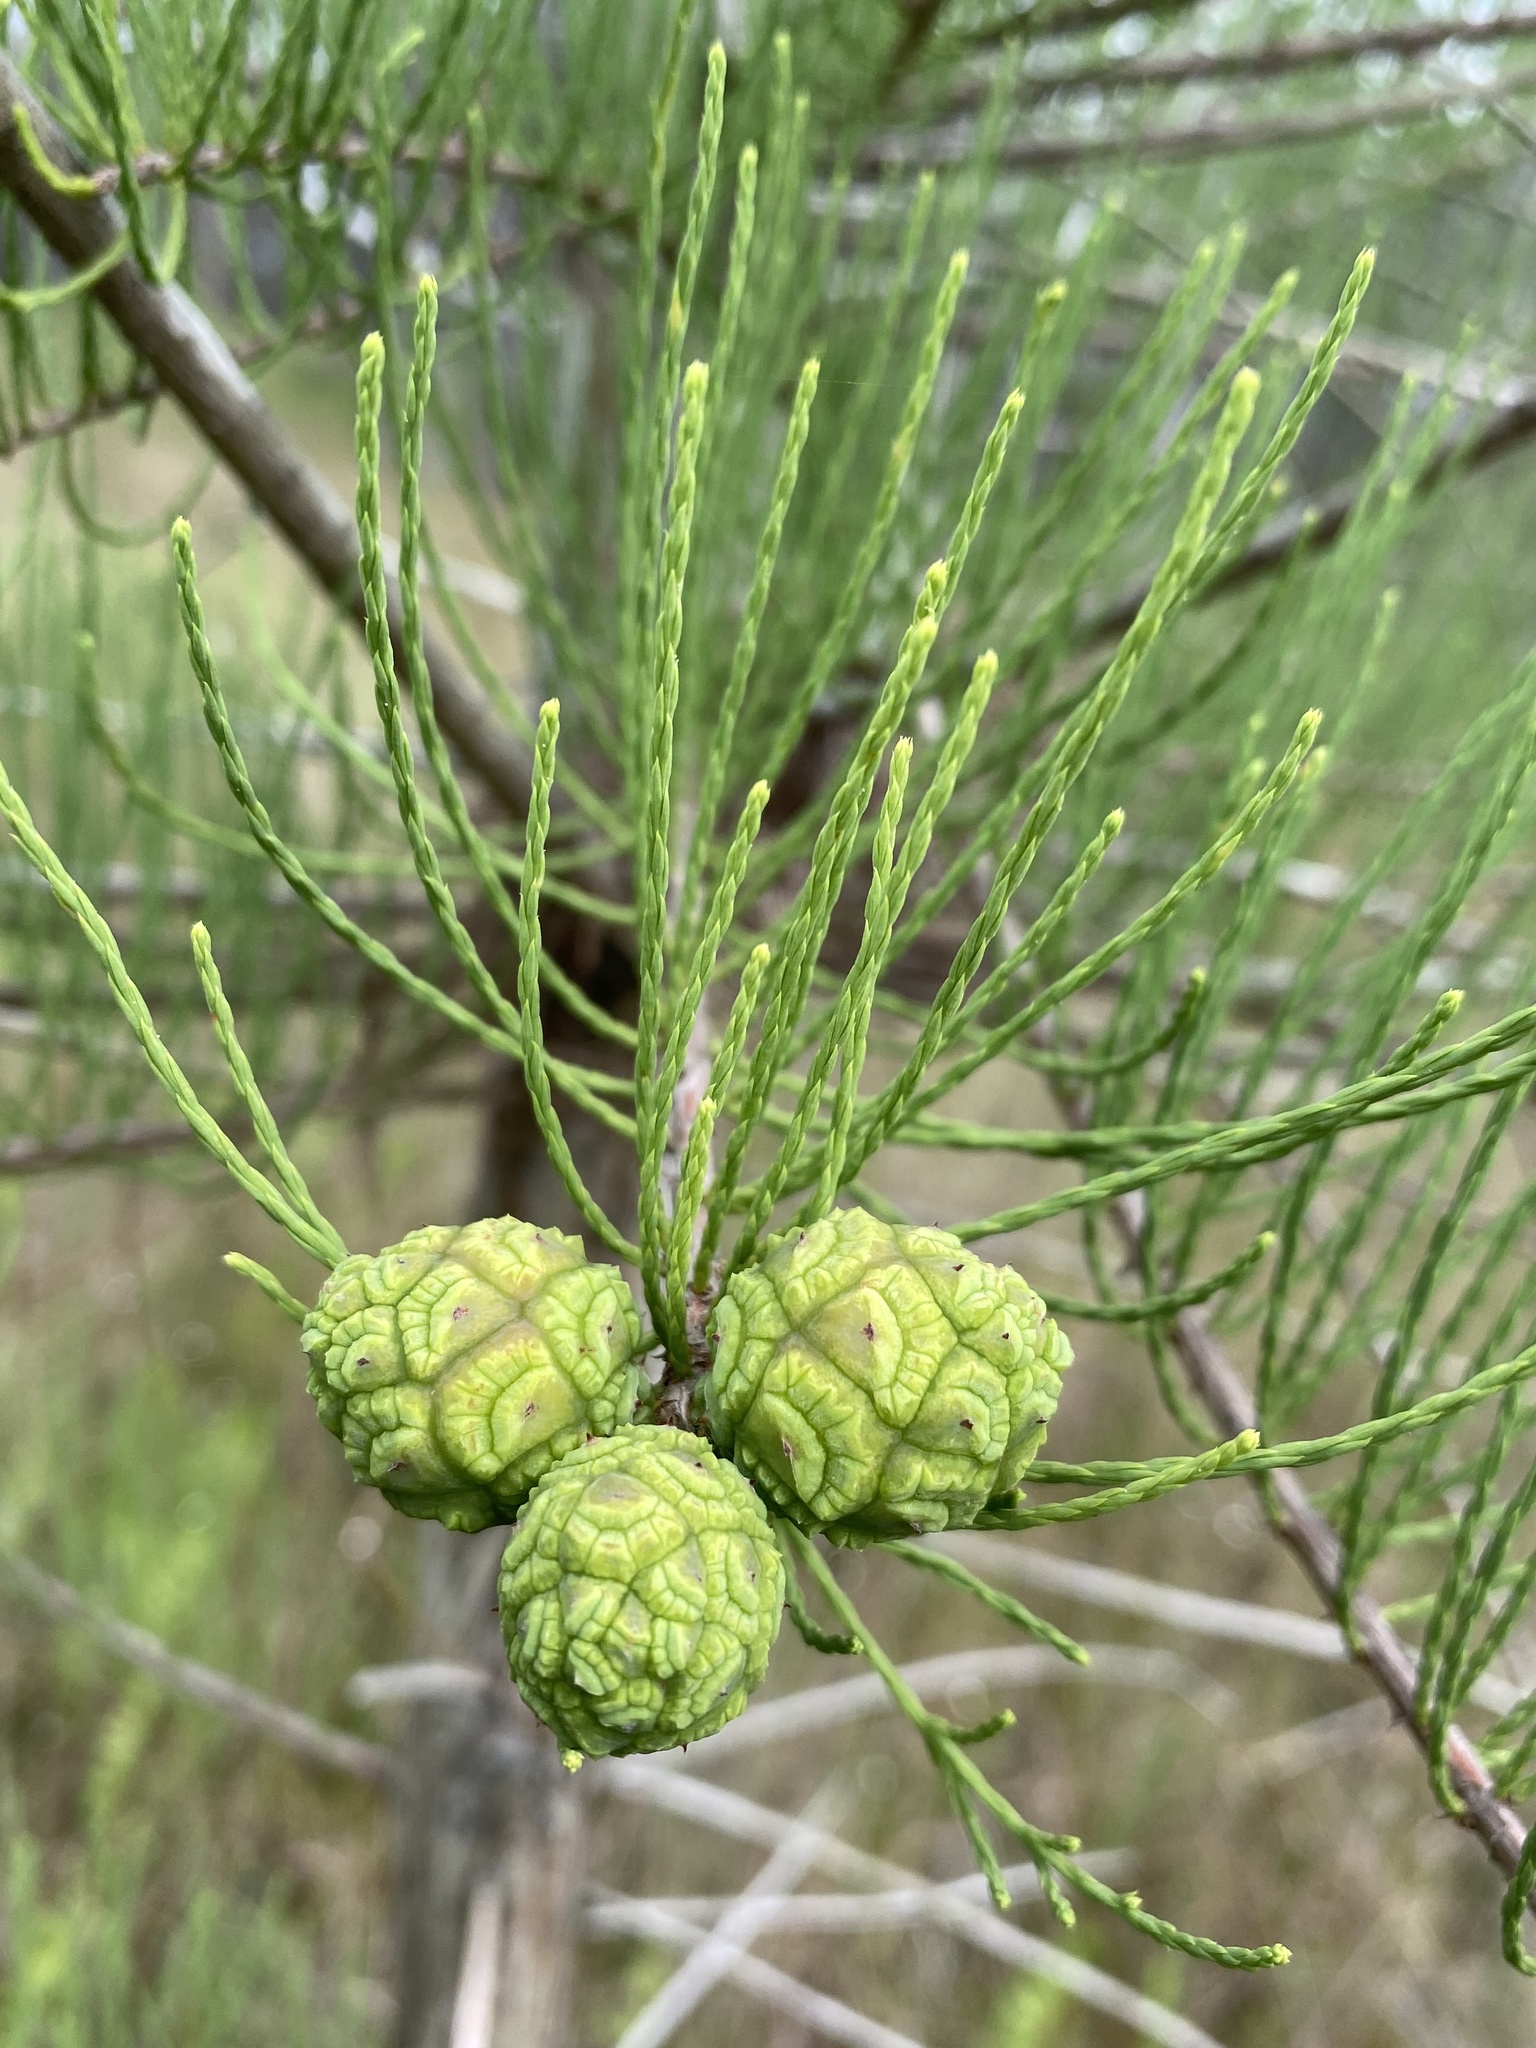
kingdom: Plantae
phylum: Tracheophyta
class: Pinopsida
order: Pinales
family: Cupressaceae
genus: Taxodium
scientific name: Taxodium distichum
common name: Bald cypress
